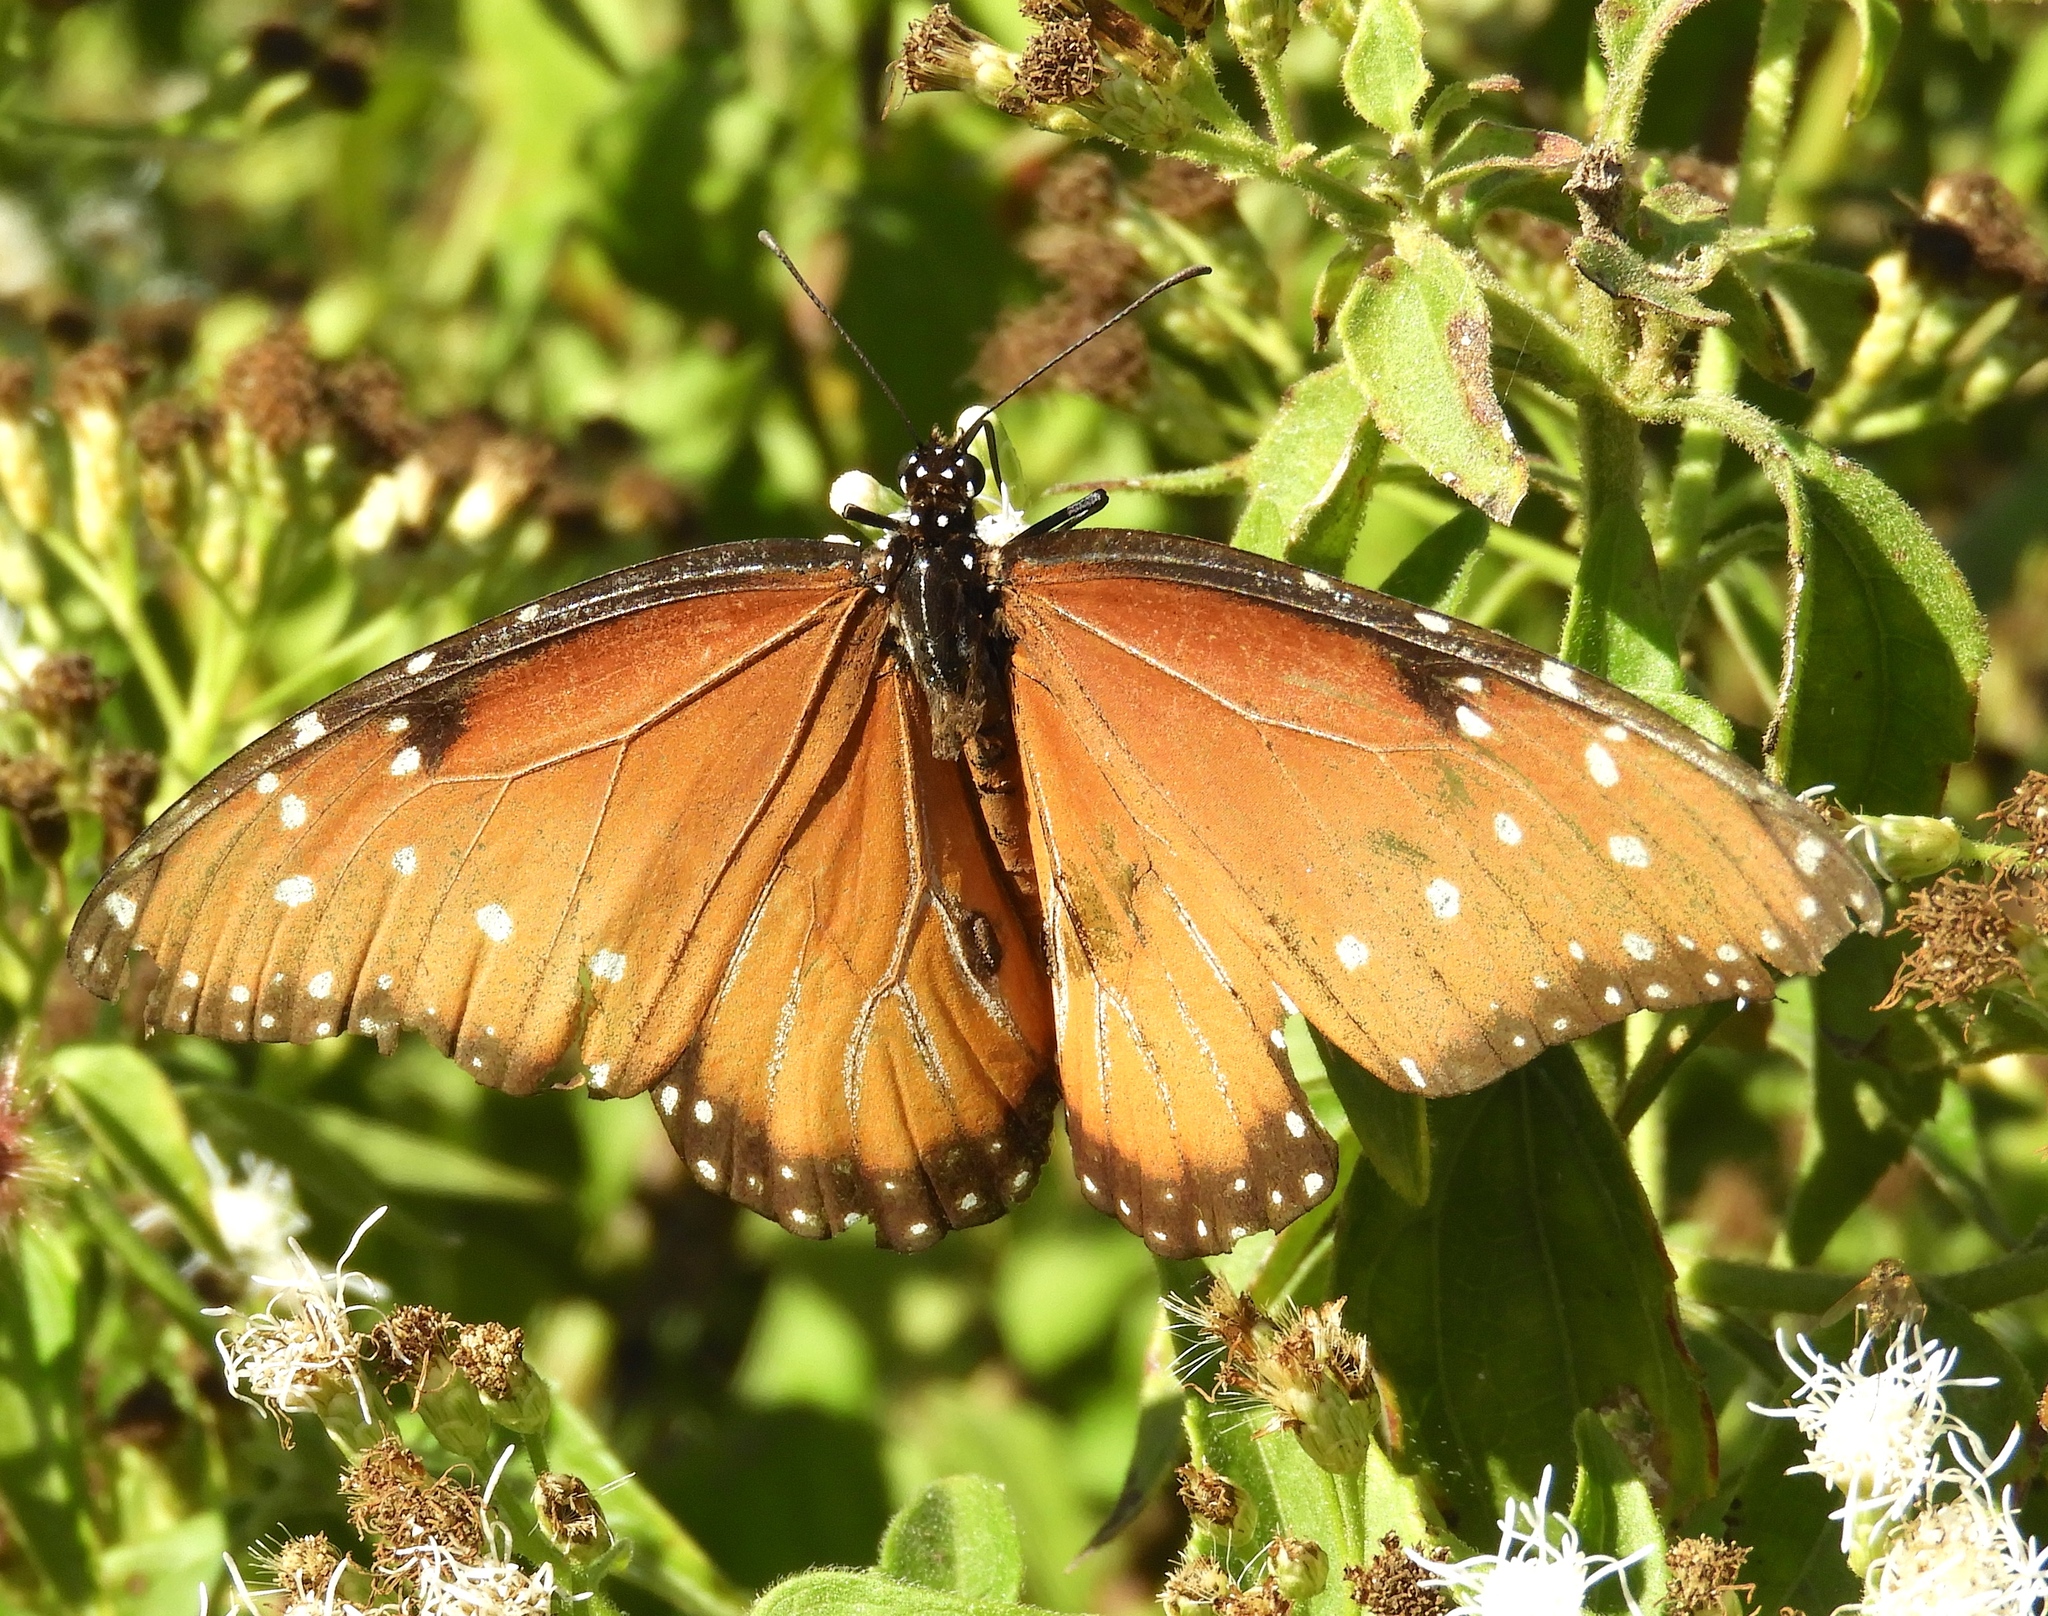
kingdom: Animalia
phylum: Arthropoda
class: Insecta
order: Lepidoptera
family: Nymphalidae
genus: Danaus
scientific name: Danaus gilippus
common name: Queen
